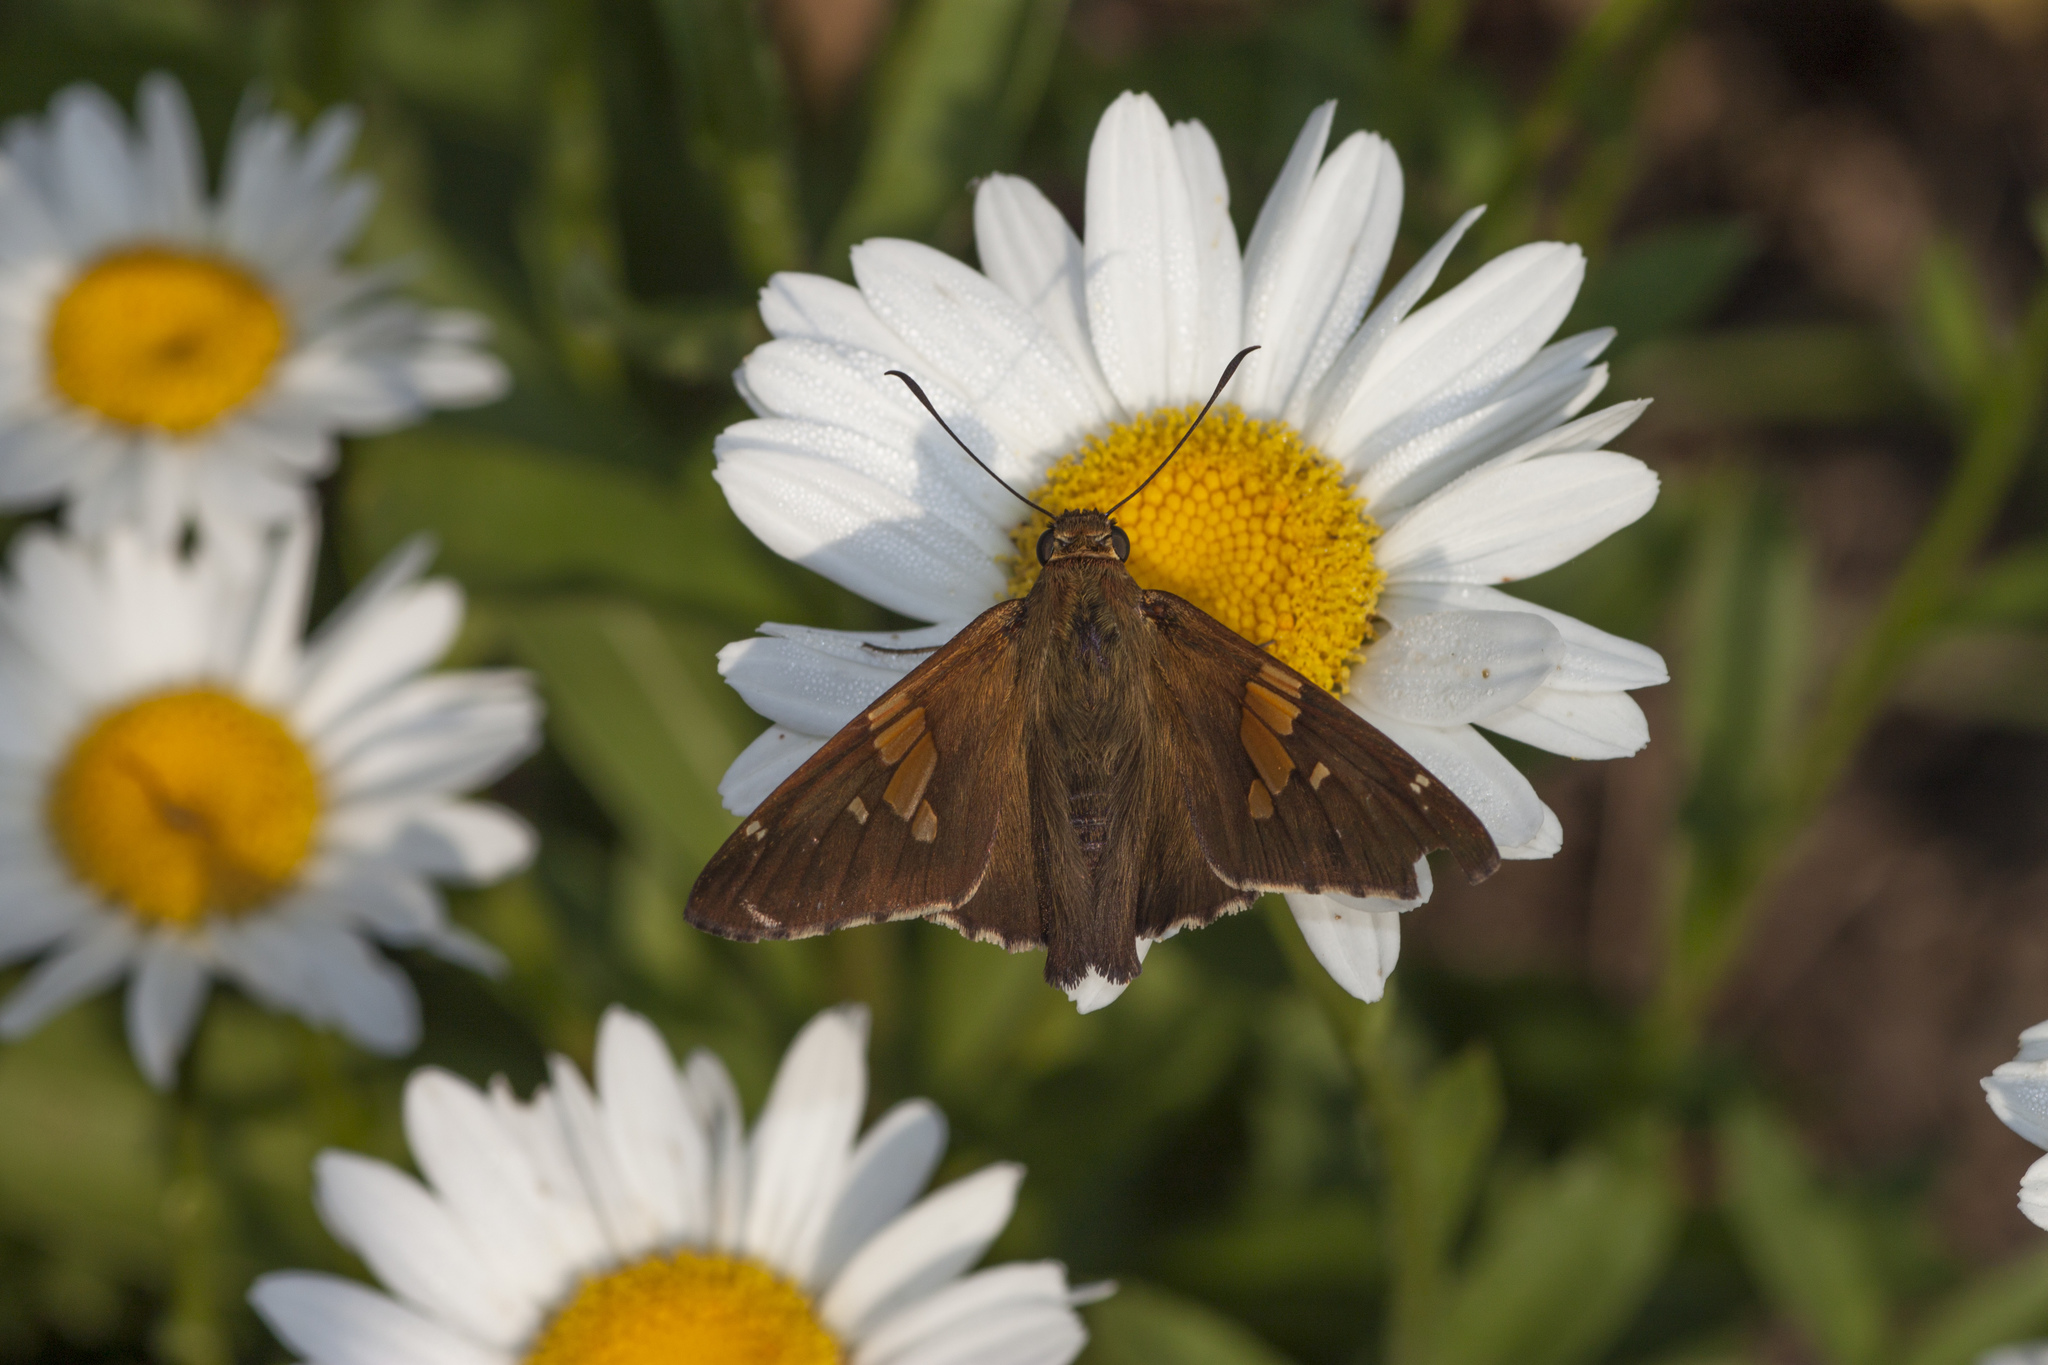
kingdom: Animalia
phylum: Arthropoda
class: Insecta
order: Lepidoptera
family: Hesperiidae
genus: Epargyreus
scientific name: Epargyreus clarus
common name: Silver-spotted skipper
